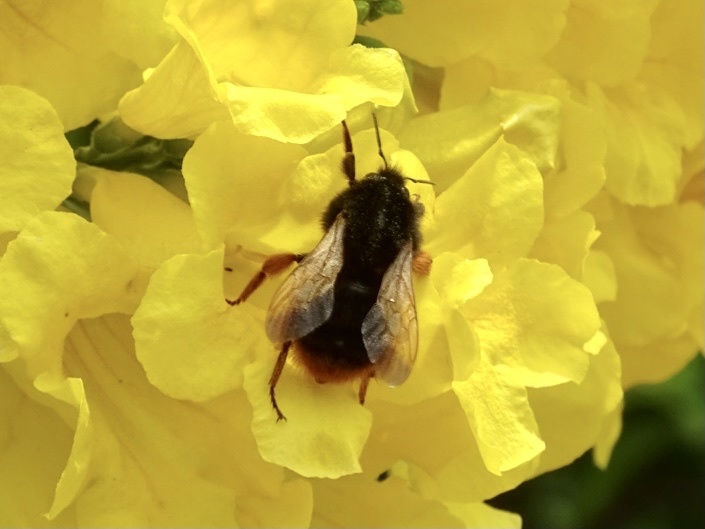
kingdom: Animalia
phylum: Arthropoda
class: Insecta
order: Hymenoptera
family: Apidae
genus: Bombus
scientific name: Bombus eximius
